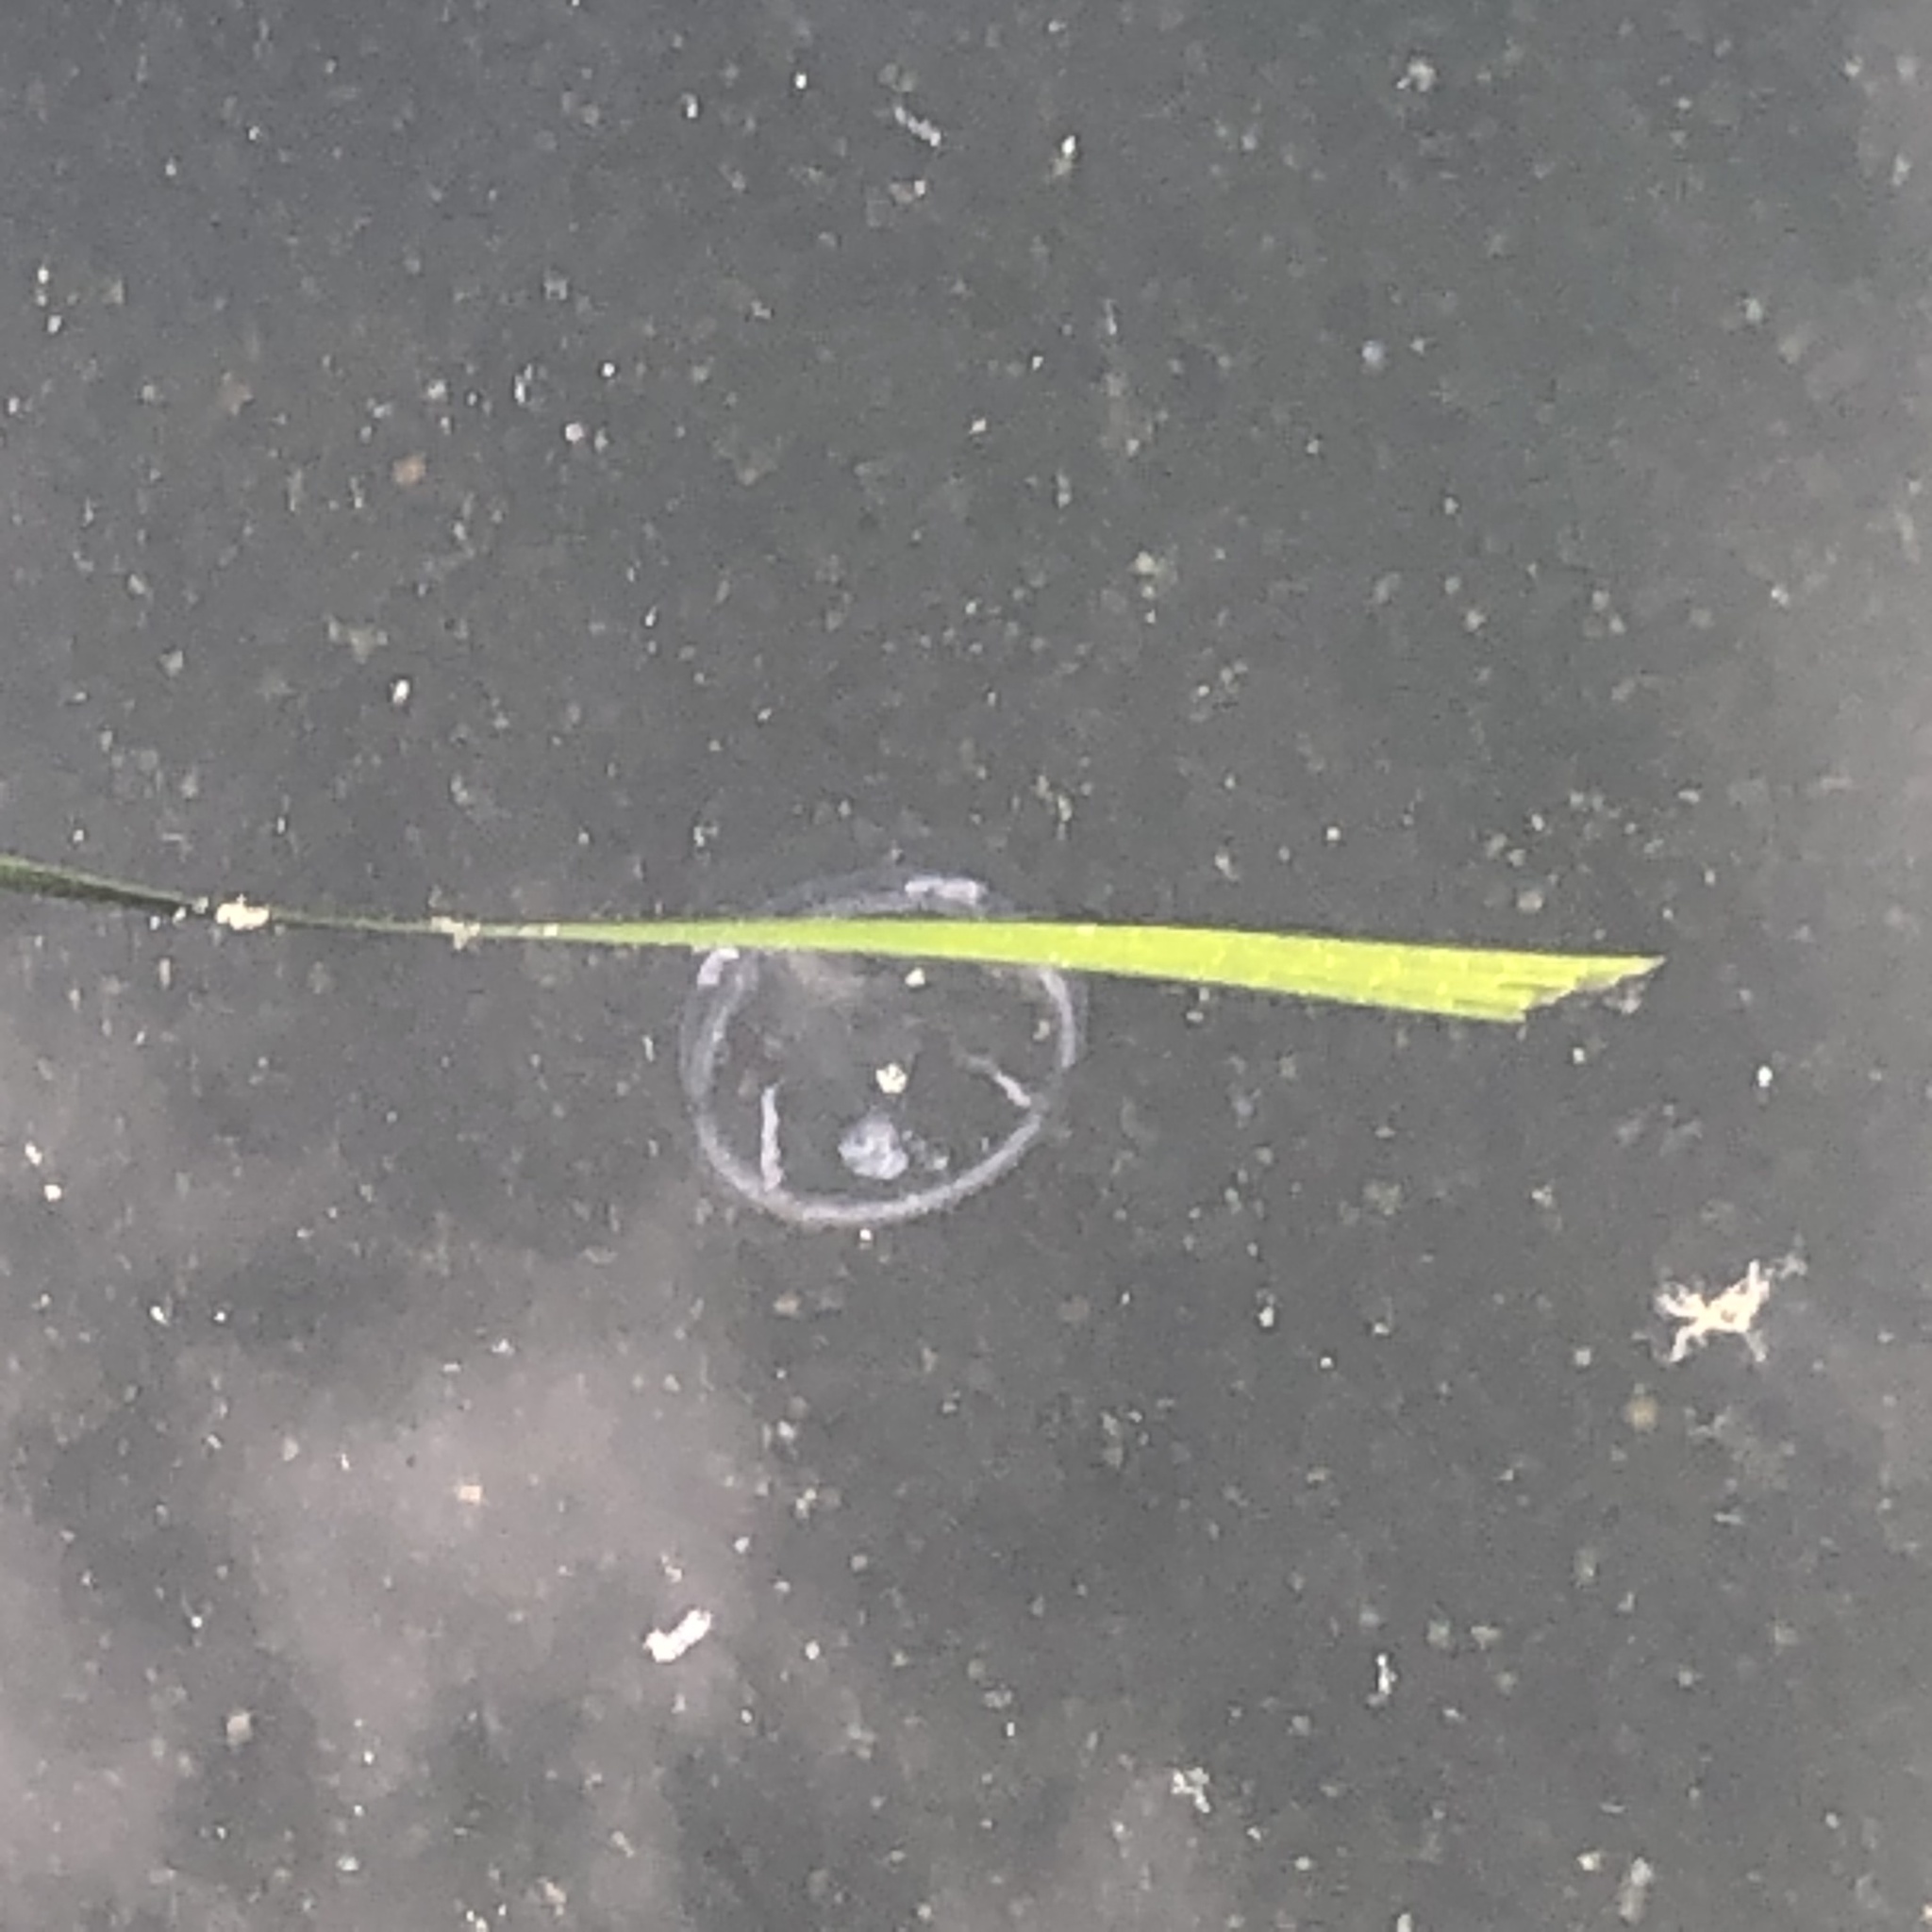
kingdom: Animalia
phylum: Cnidaria
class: Hydrozoa
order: Leptothecata
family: Eirenidae
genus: Eutonina
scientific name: Eutonina indicans
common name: Umbrella jellyfish
